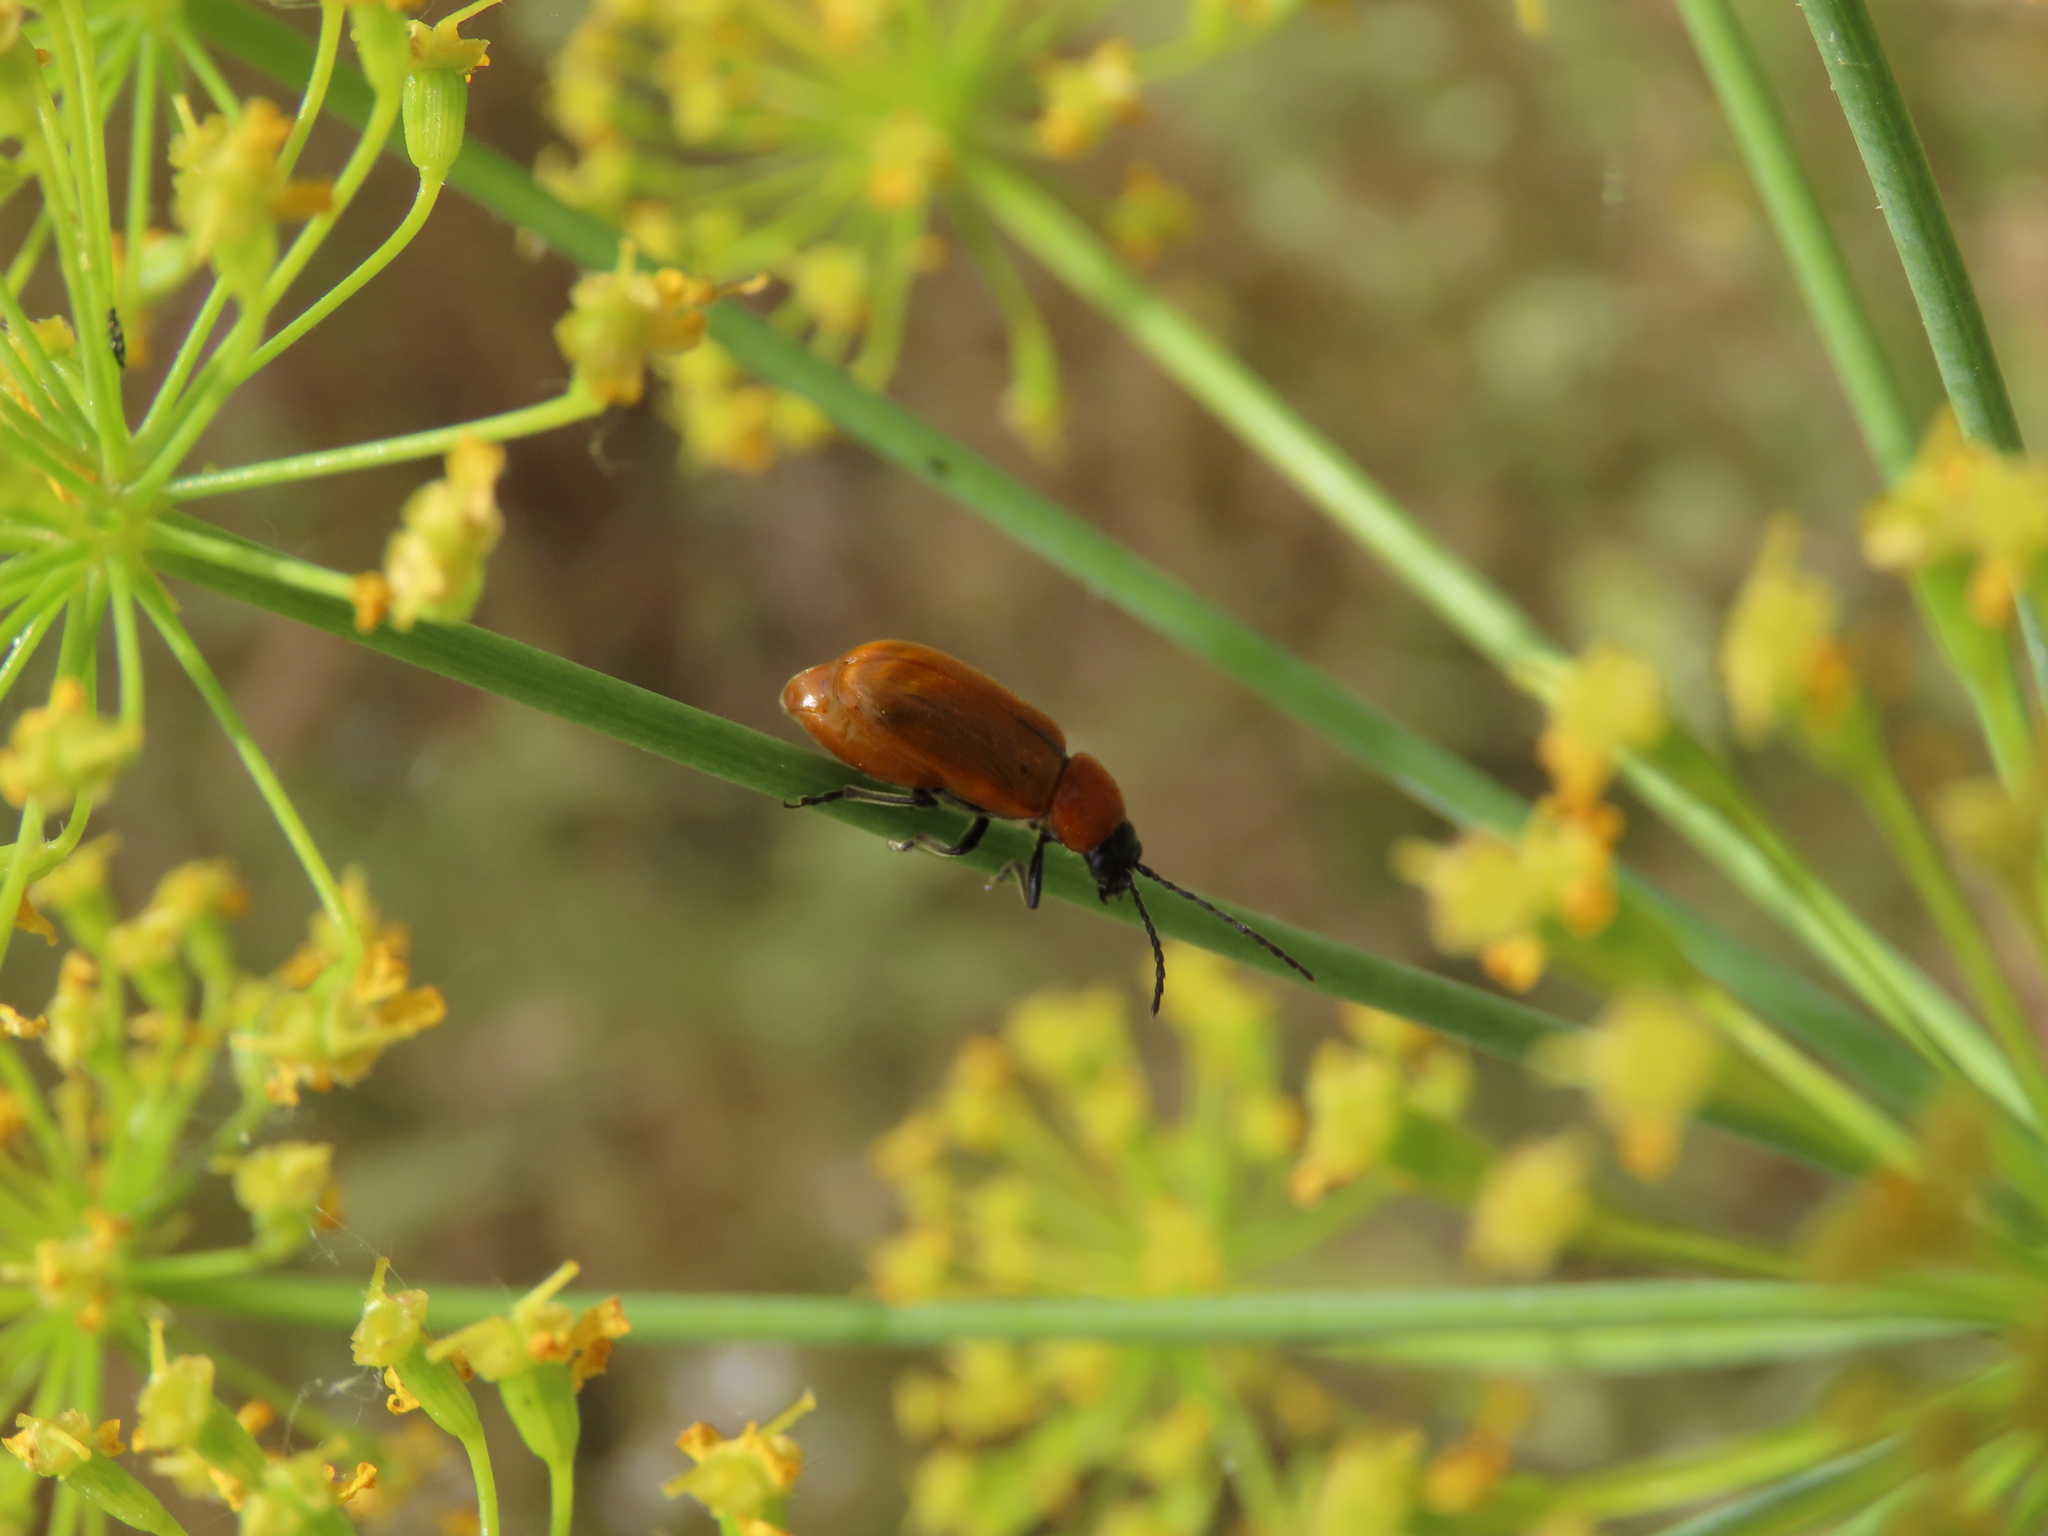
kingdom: Animalia
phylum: Arthropoda
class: Insecta
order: Coleoptera
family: Chrysomelidae
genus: Exosoma
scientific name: Exosoma lusitanicum
